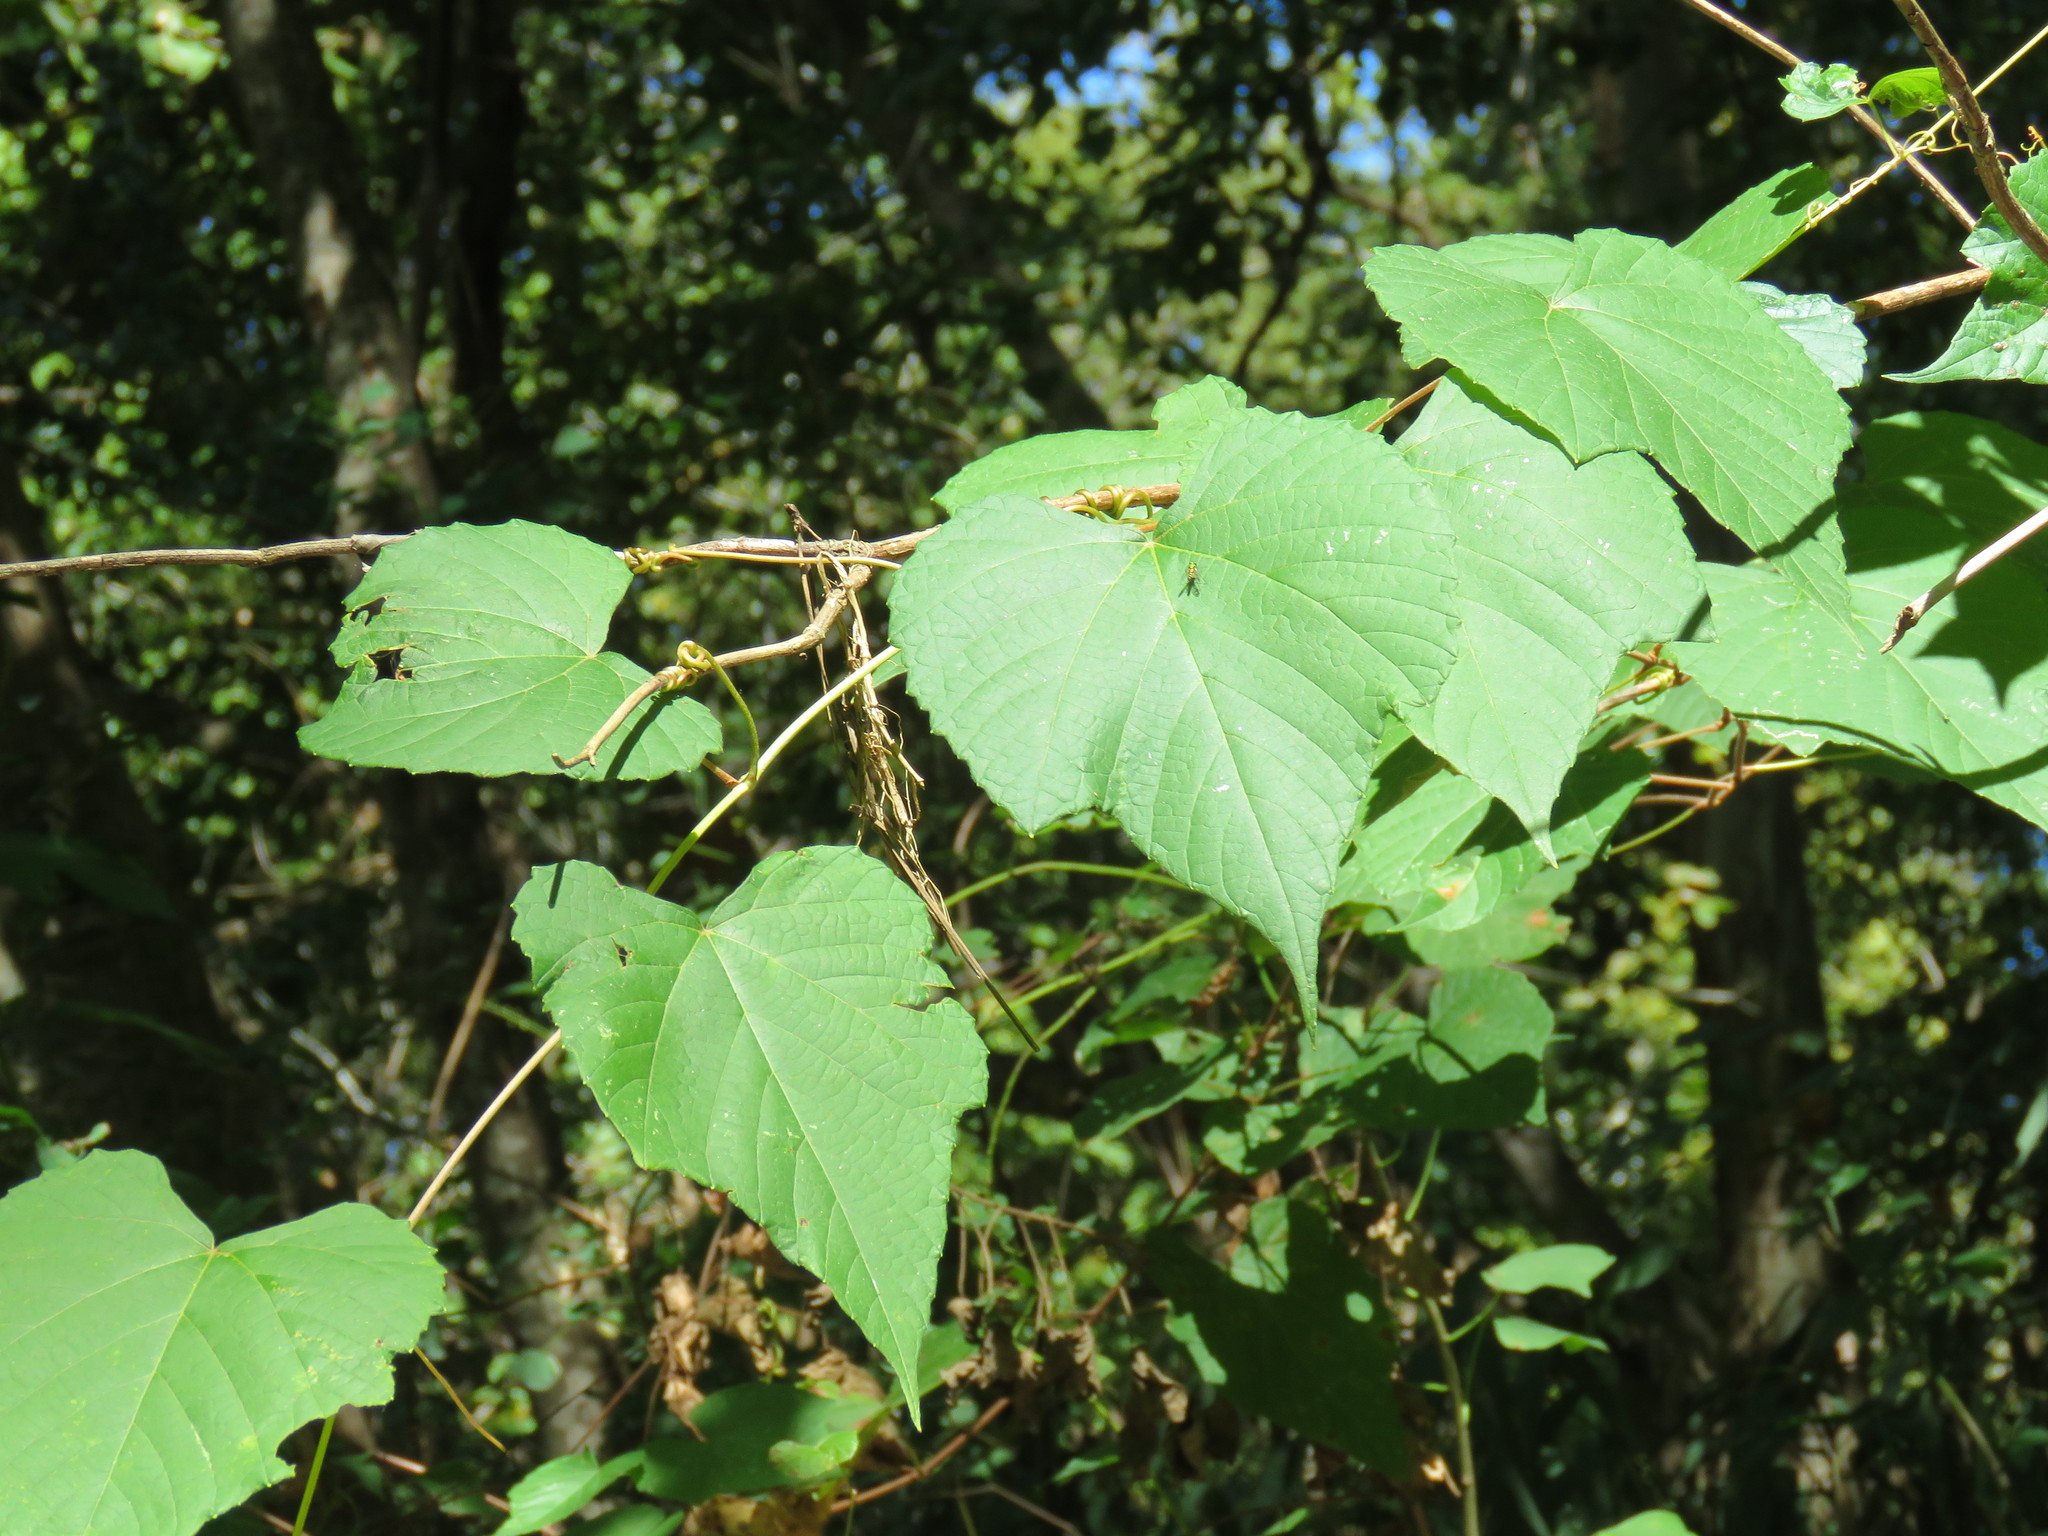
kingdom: Plantae
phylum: Tracheophyta
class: Magnoliopsida
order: Vitales
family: Vitaceae
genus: Vitis
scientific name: Vitis cinerea
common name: Ashy grape
